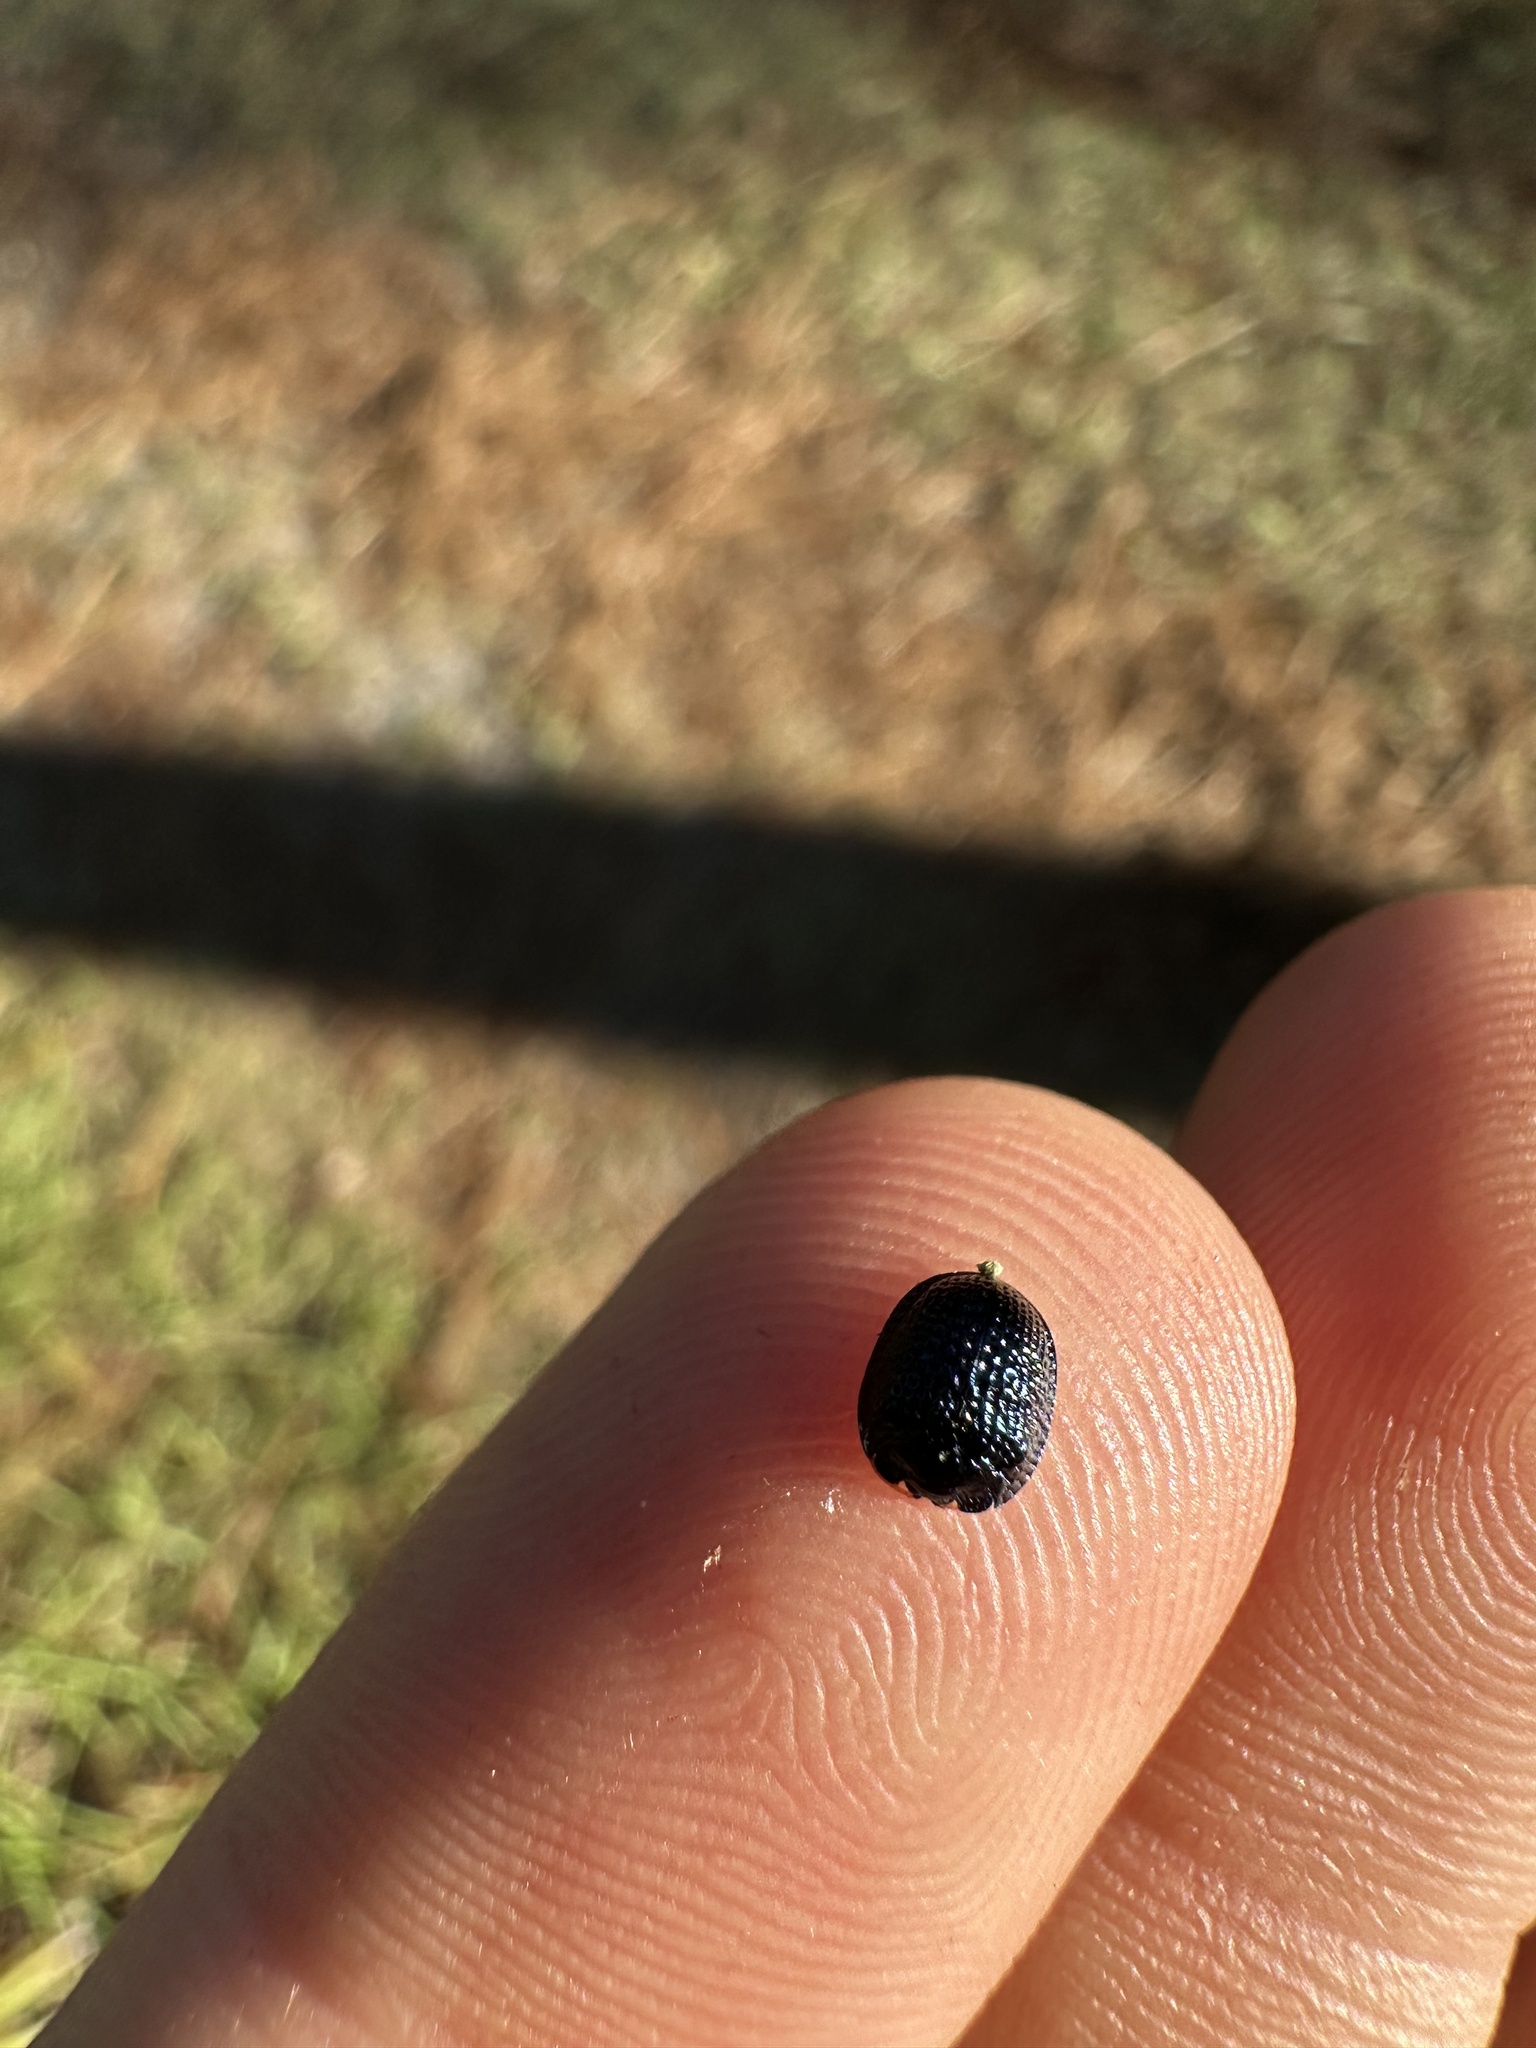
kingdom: Animalia
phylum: Arthropoda
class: Insecta
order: Coleoptera
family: Chrysomelidae
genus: Hemisphaerota
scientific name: Hemisphaerota cyanea
